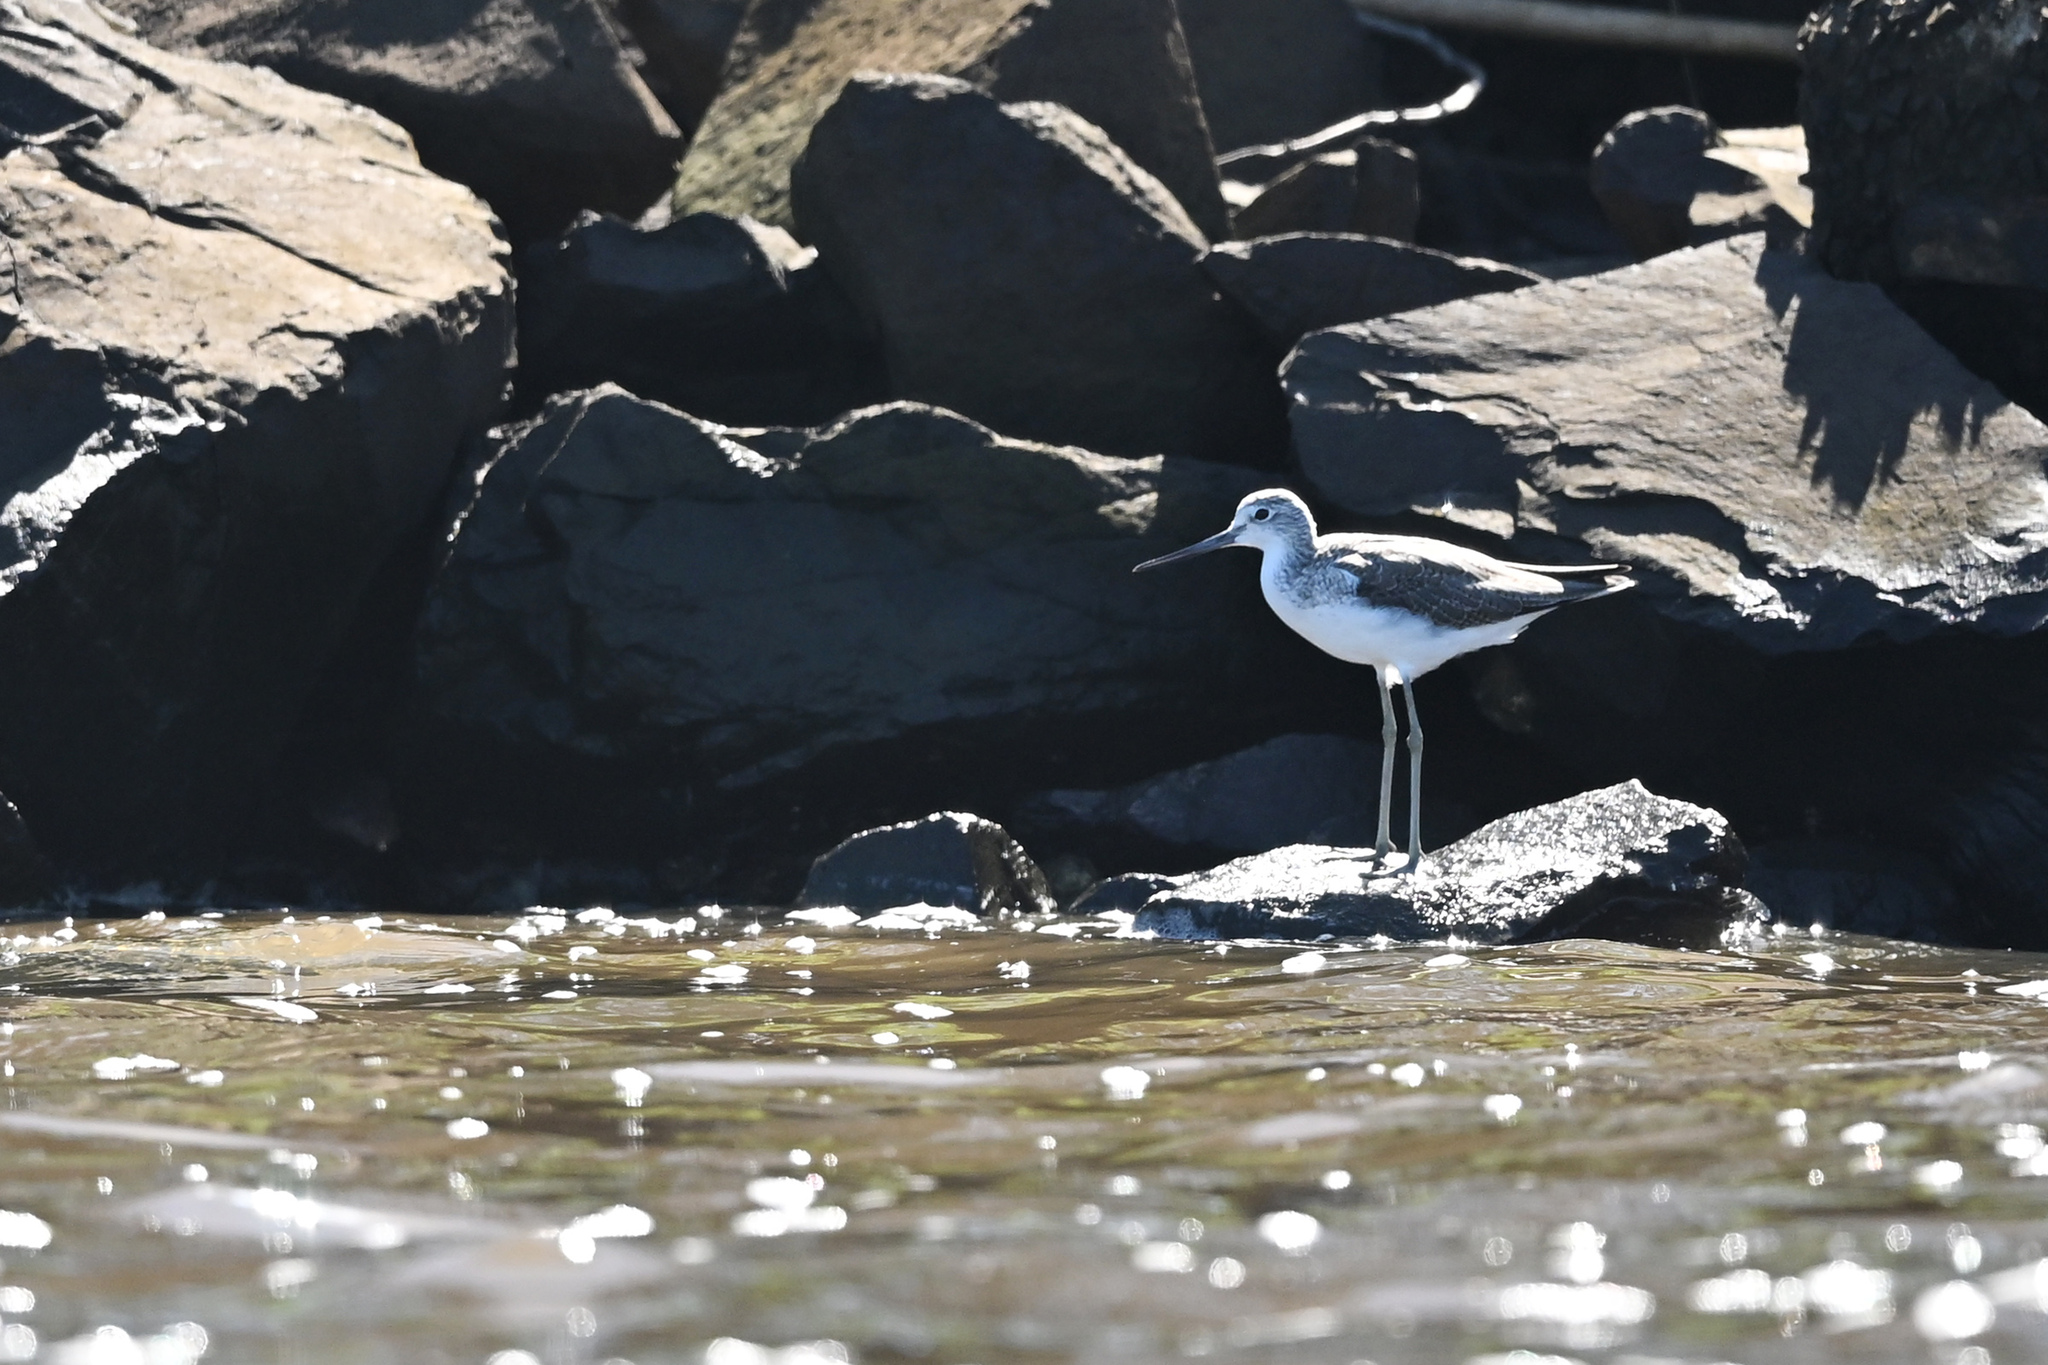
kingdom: Animalia
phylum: Chordata
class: Aves
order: Charadriiformes
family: Scolopacidae
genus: Tringa
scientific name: Tringa nebularia
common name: Common greenshank
